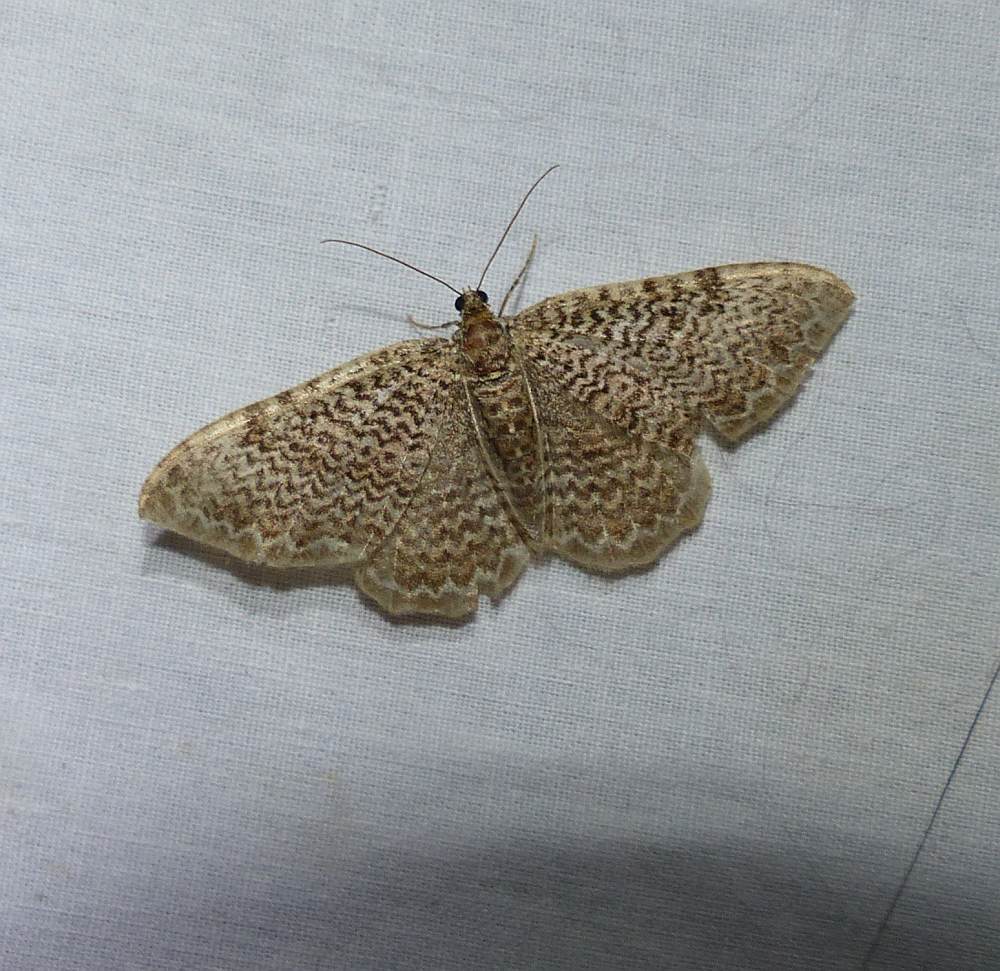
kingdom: Animalia
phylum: Arthropoda
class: Insecta
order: Lepidoptera
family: Geometridae
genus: Rheumaptera
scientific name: Rheumaptera prunivorata
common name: Cherry scallop shell moth
